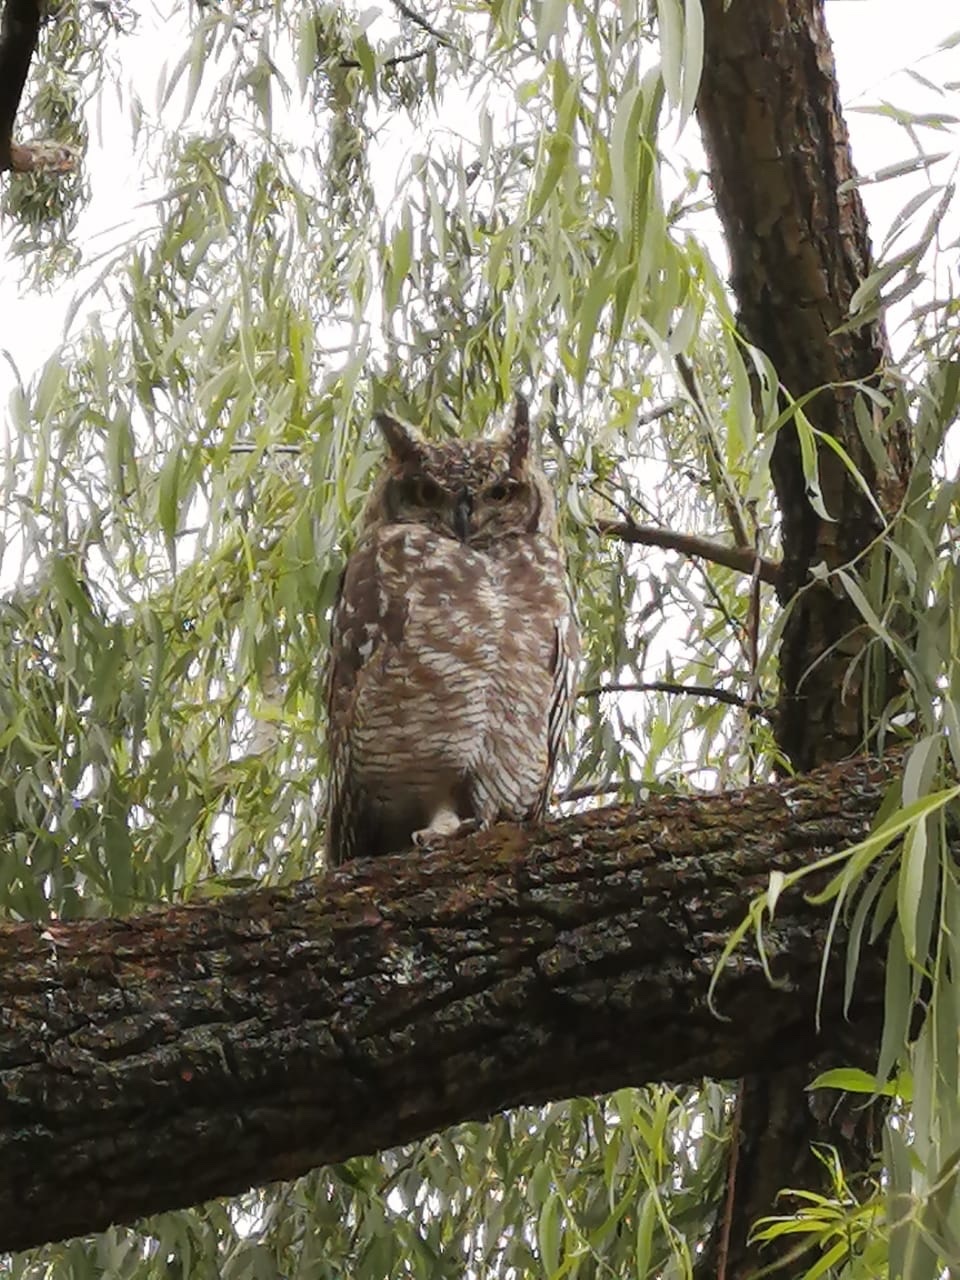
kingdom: Animalia
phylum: Chordata
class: Aves
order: Strigiformes
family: Strigidae
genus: Bubo
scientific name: Bubo africanus
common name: Spotted eagle-owl
